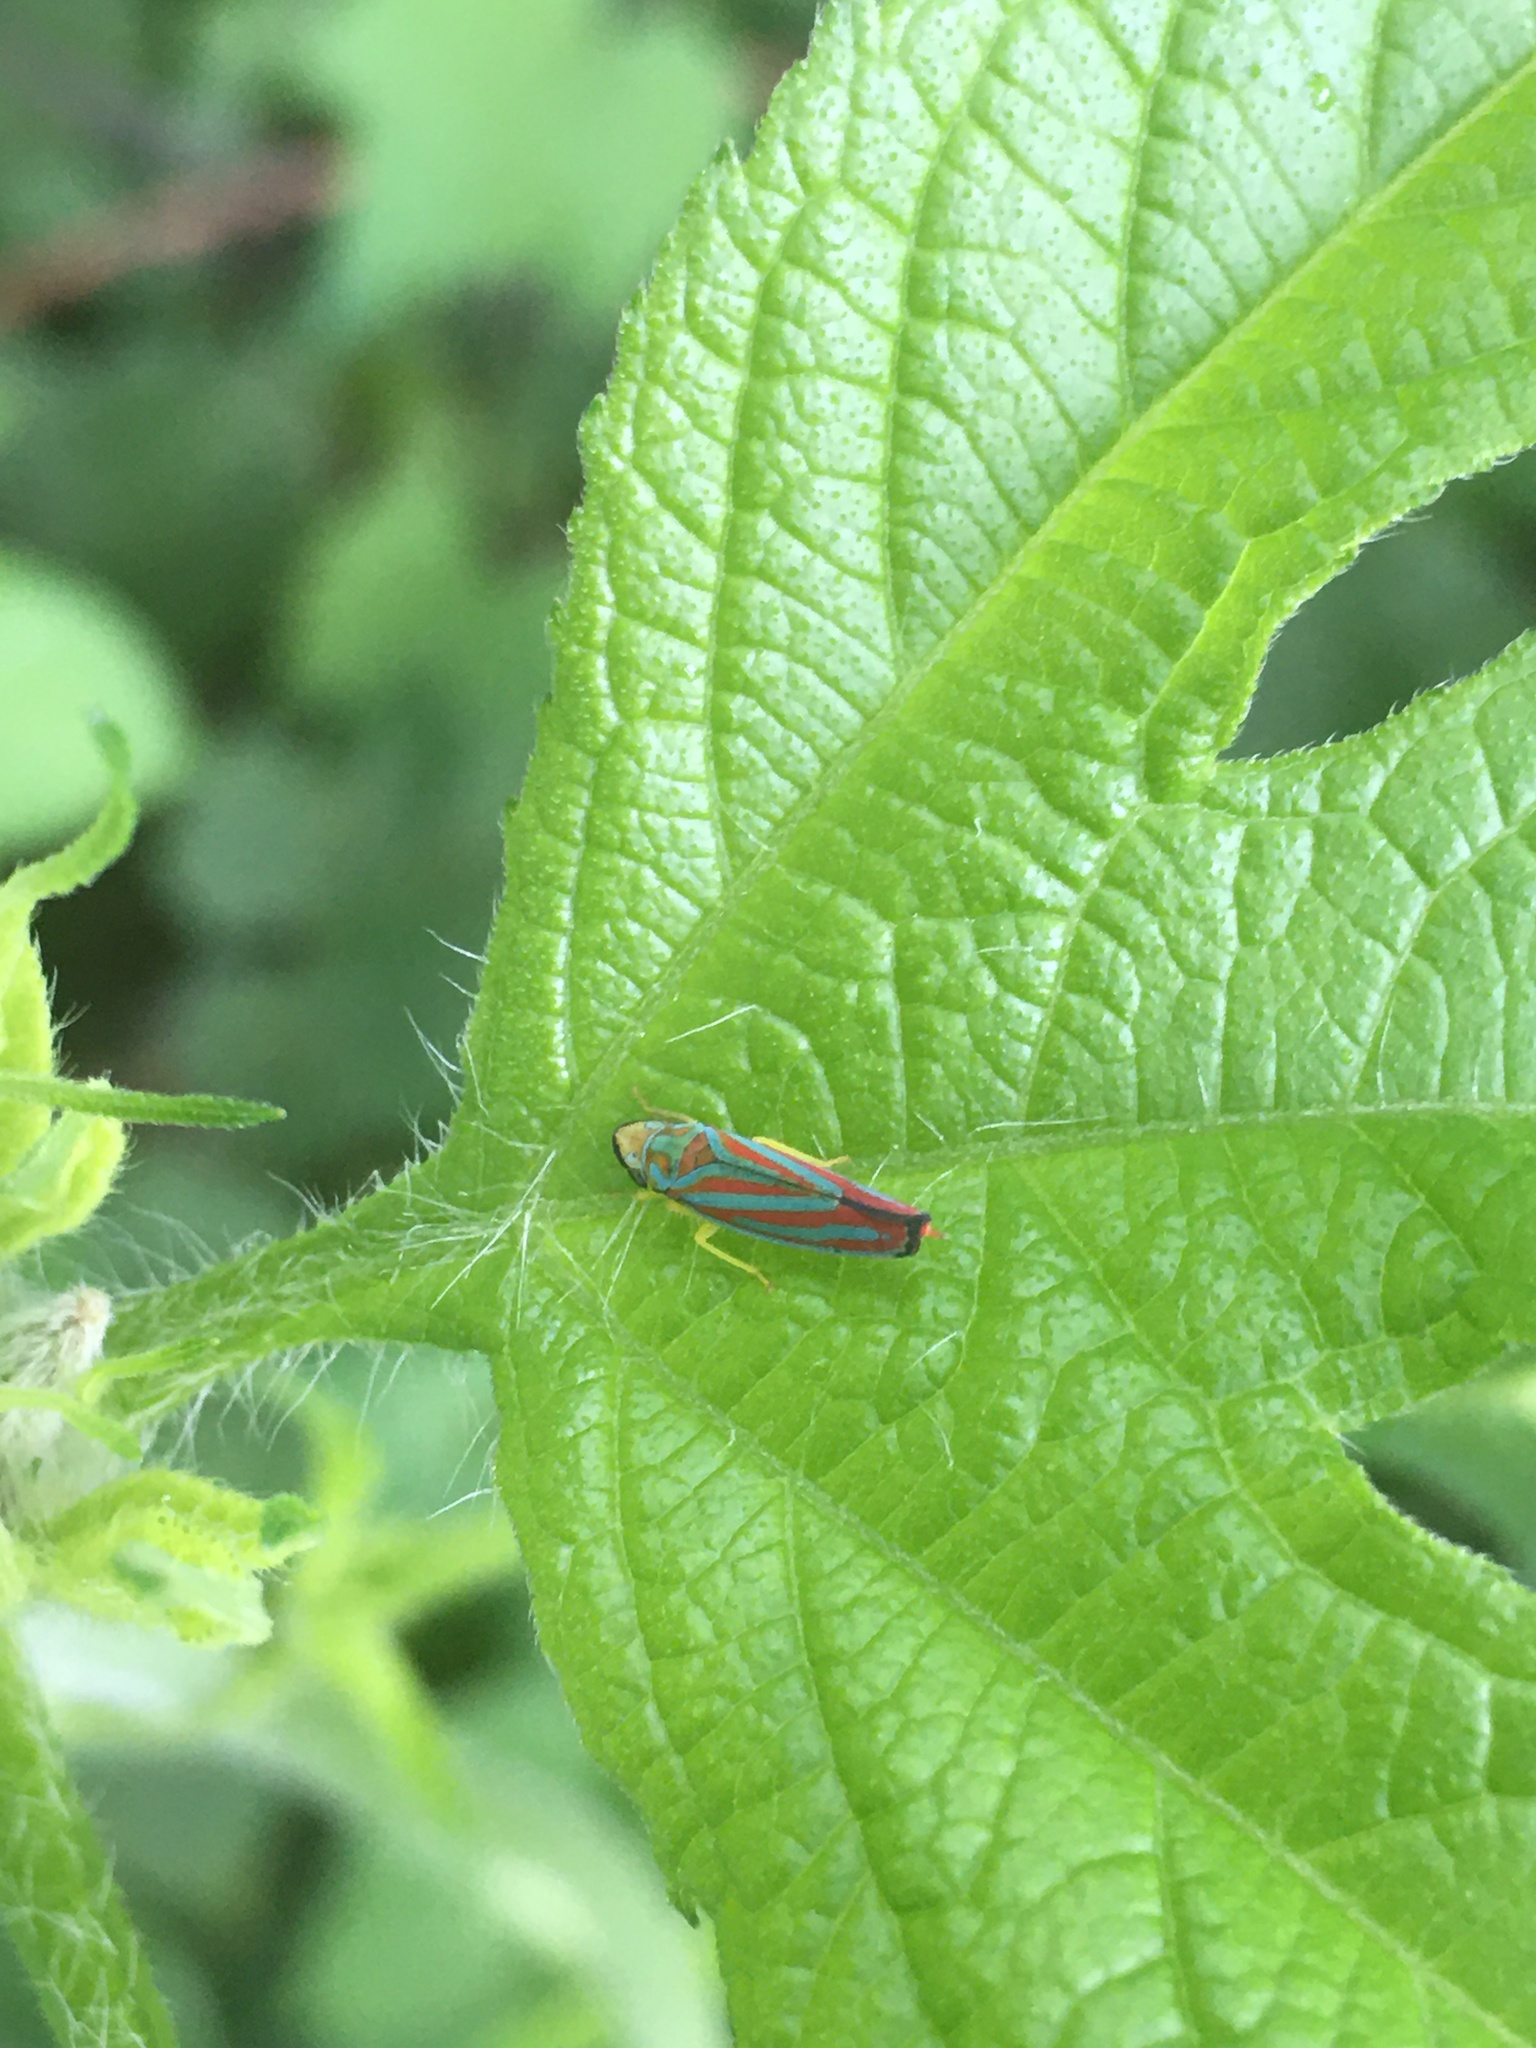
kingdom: Animalia
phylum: Arthropoda
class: Insecta
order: Hemiptera
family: Cicadellidae
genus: Graphocephala
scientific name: Graphocephala coccinea
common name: Candy-striped leafhopper
